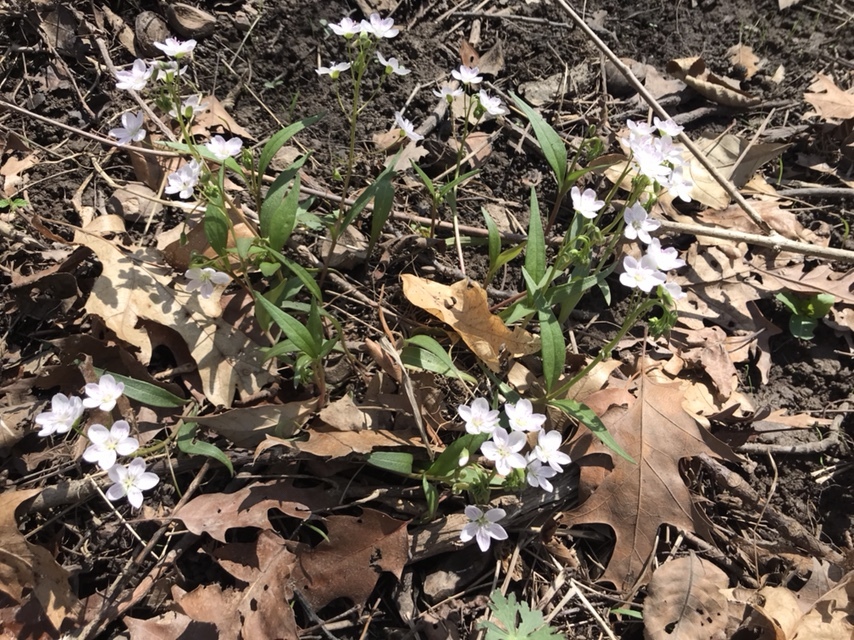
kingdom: Plantae
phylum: Tracheophyta
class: Magnoliopsida
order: Caryophyllales
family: Montiaceae
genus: Claytonia
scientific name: Claytonia virginica
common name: Virginia springbeauty
